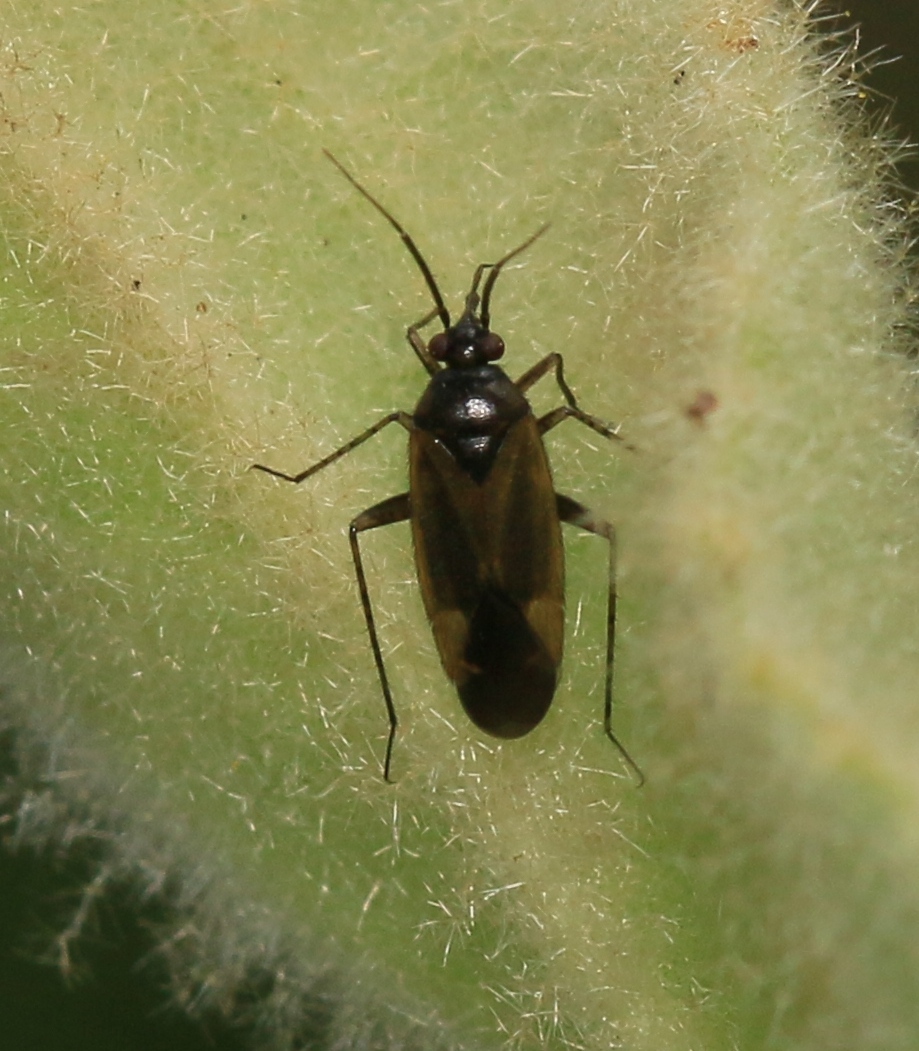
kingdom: Animalia
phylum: Arthropoda
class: Insecta
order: Hemiptera
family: Miridae
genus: Plagiognathus
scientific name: Plagiognathus arbustorum
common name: Plant bug
